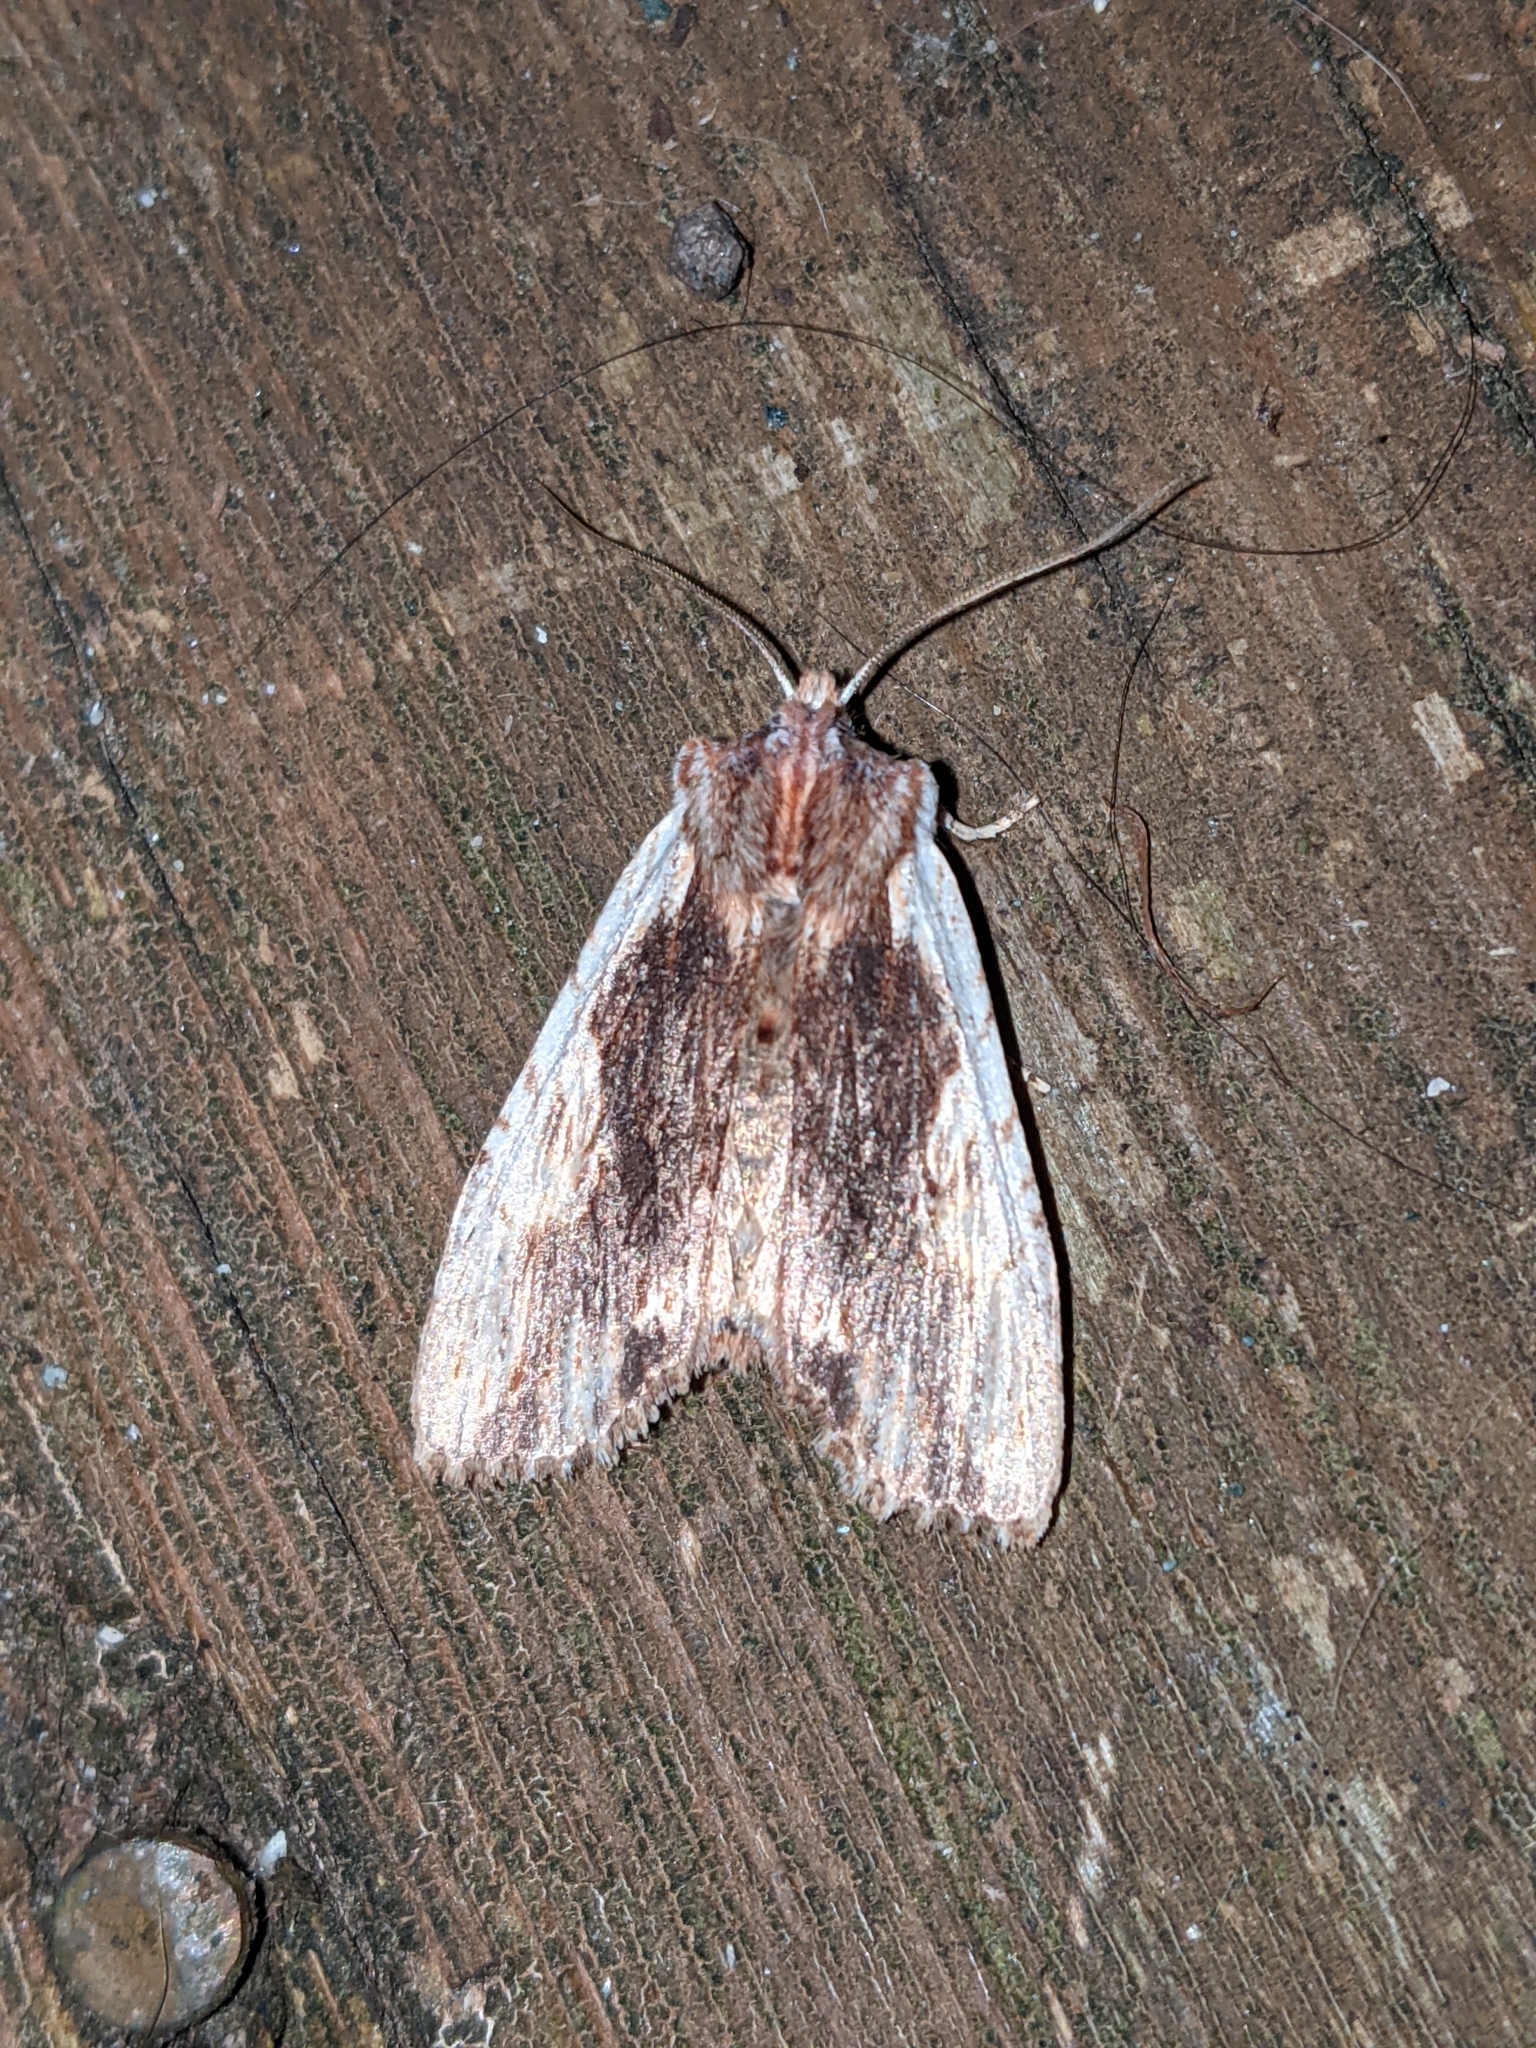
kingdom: Animalia
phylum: Arthropoda
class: Insecta
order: Lepidoptera
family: Noctuidae
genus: Lithophane
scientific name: Lithophane petulca
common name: Wanton pinion
